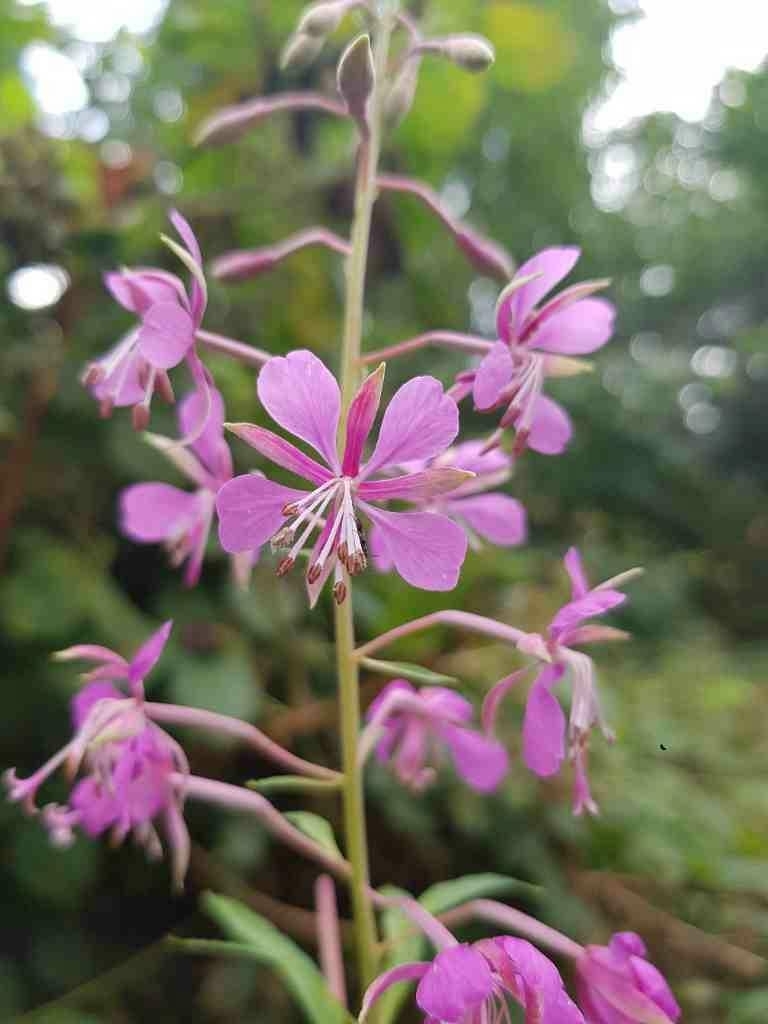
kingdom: Plantae
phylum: Tracheophyta
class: Magnoliopsida
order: Myrtales
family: Onagraceae
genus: Chamaenerion
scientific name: Chamaenerion angustifolium
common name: Fireweed
